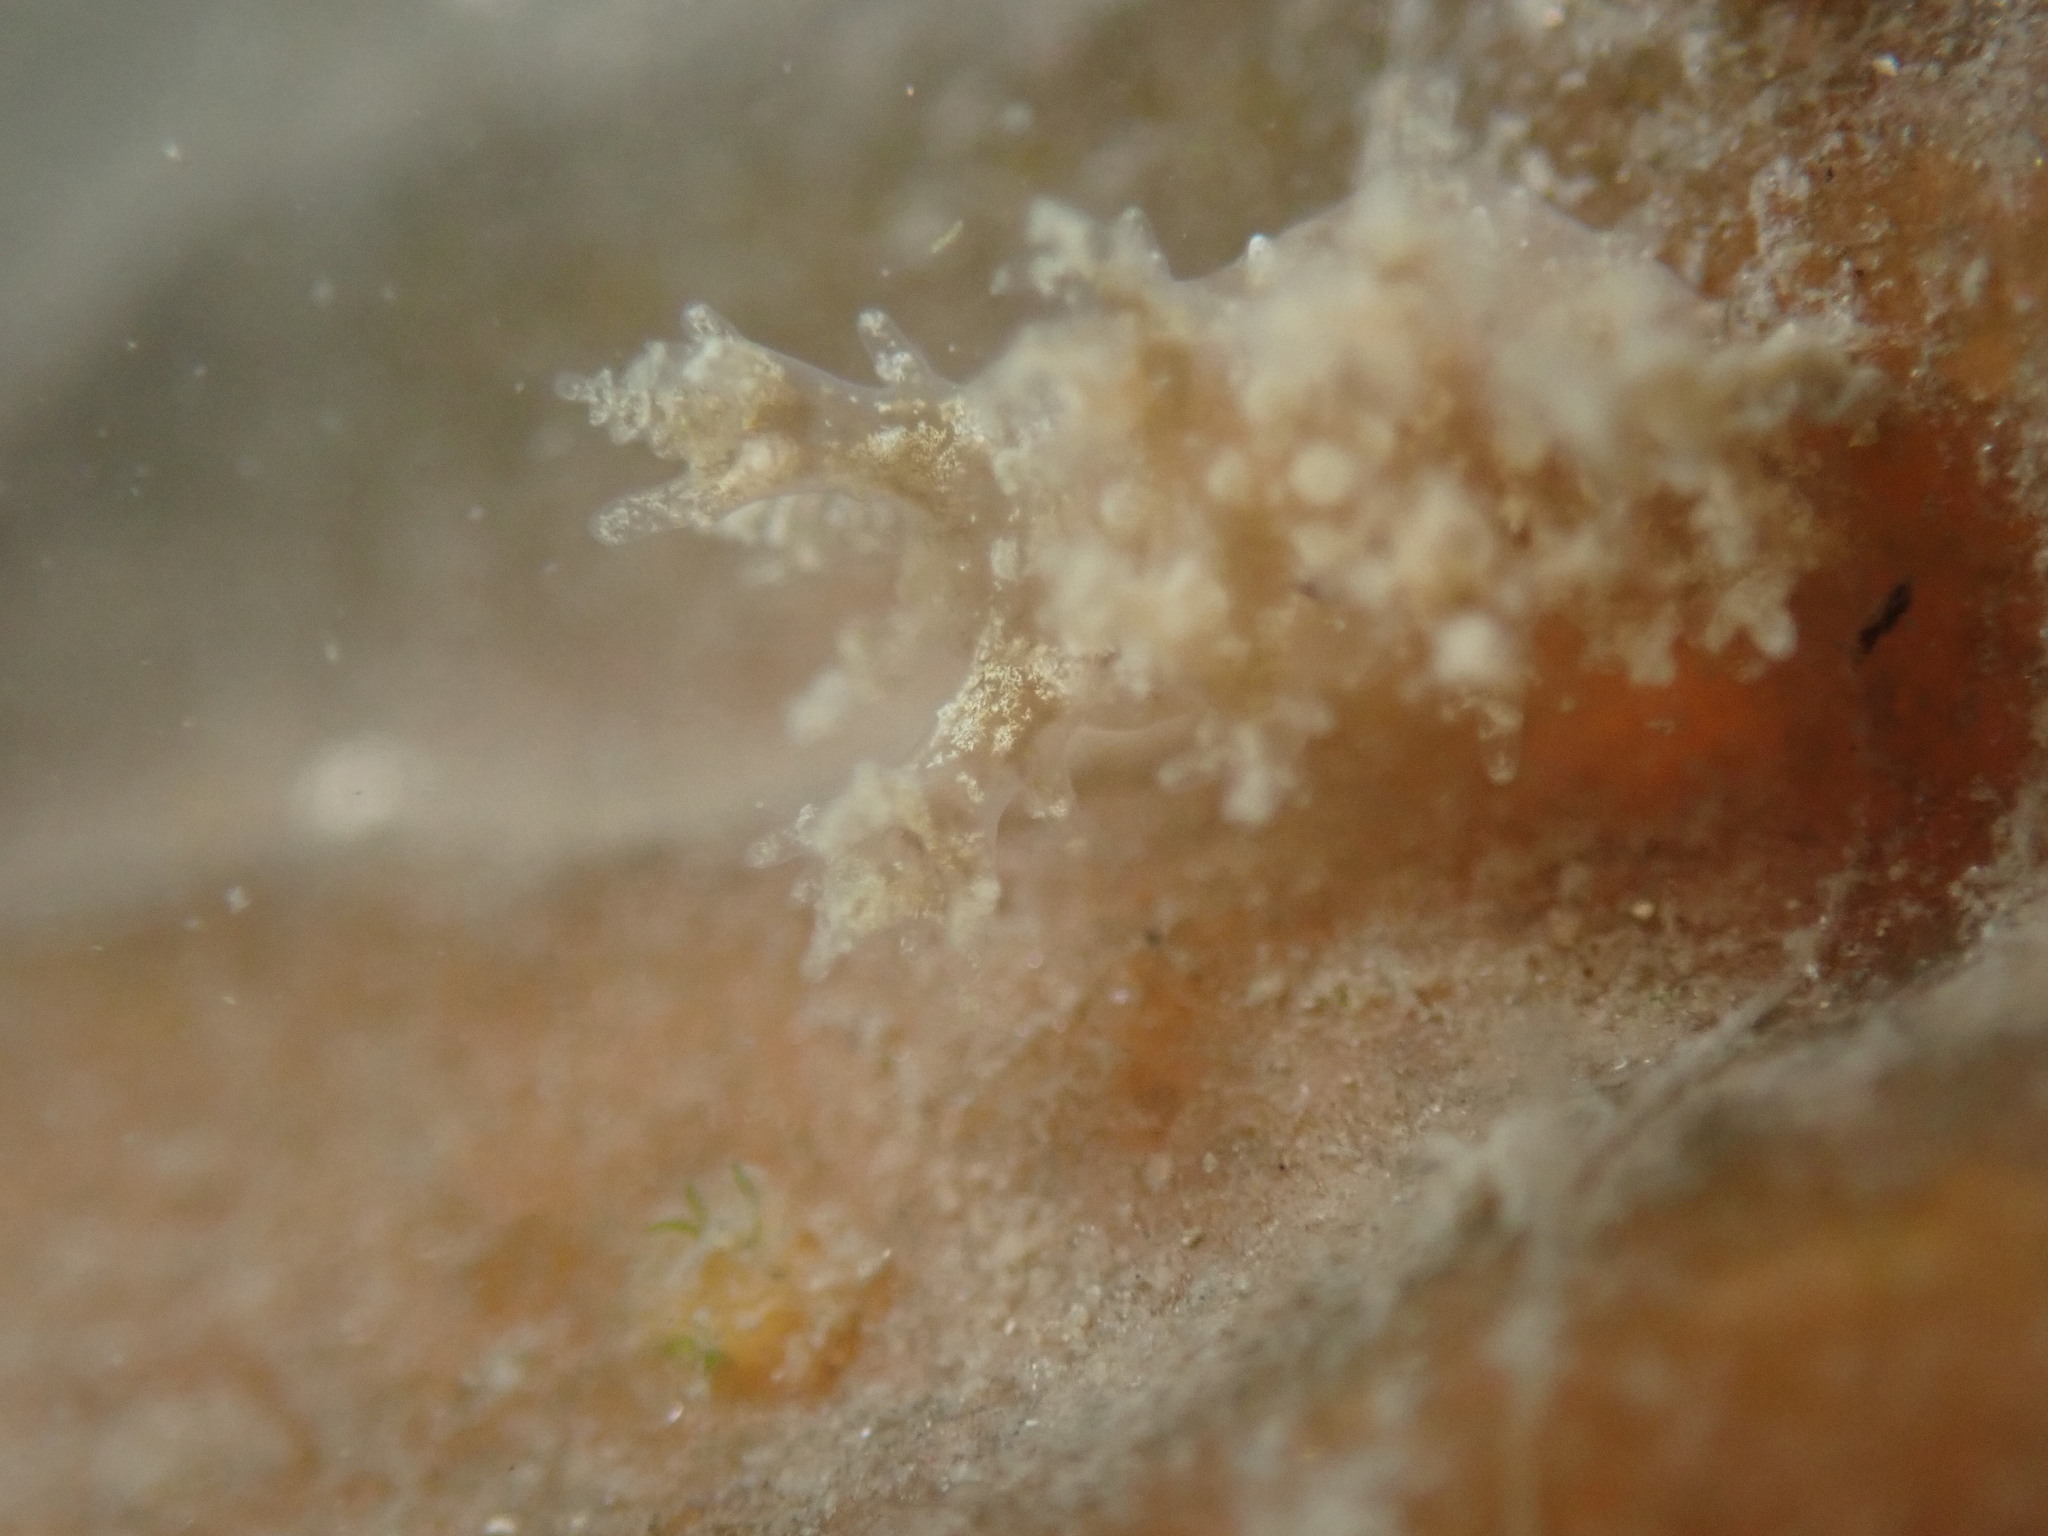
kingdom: Animalia
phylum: Mollusca
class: Gastropoda
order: Nudibranchia
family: Dendronotidae
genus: Dendronotus
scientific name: Dendronotus venustus
